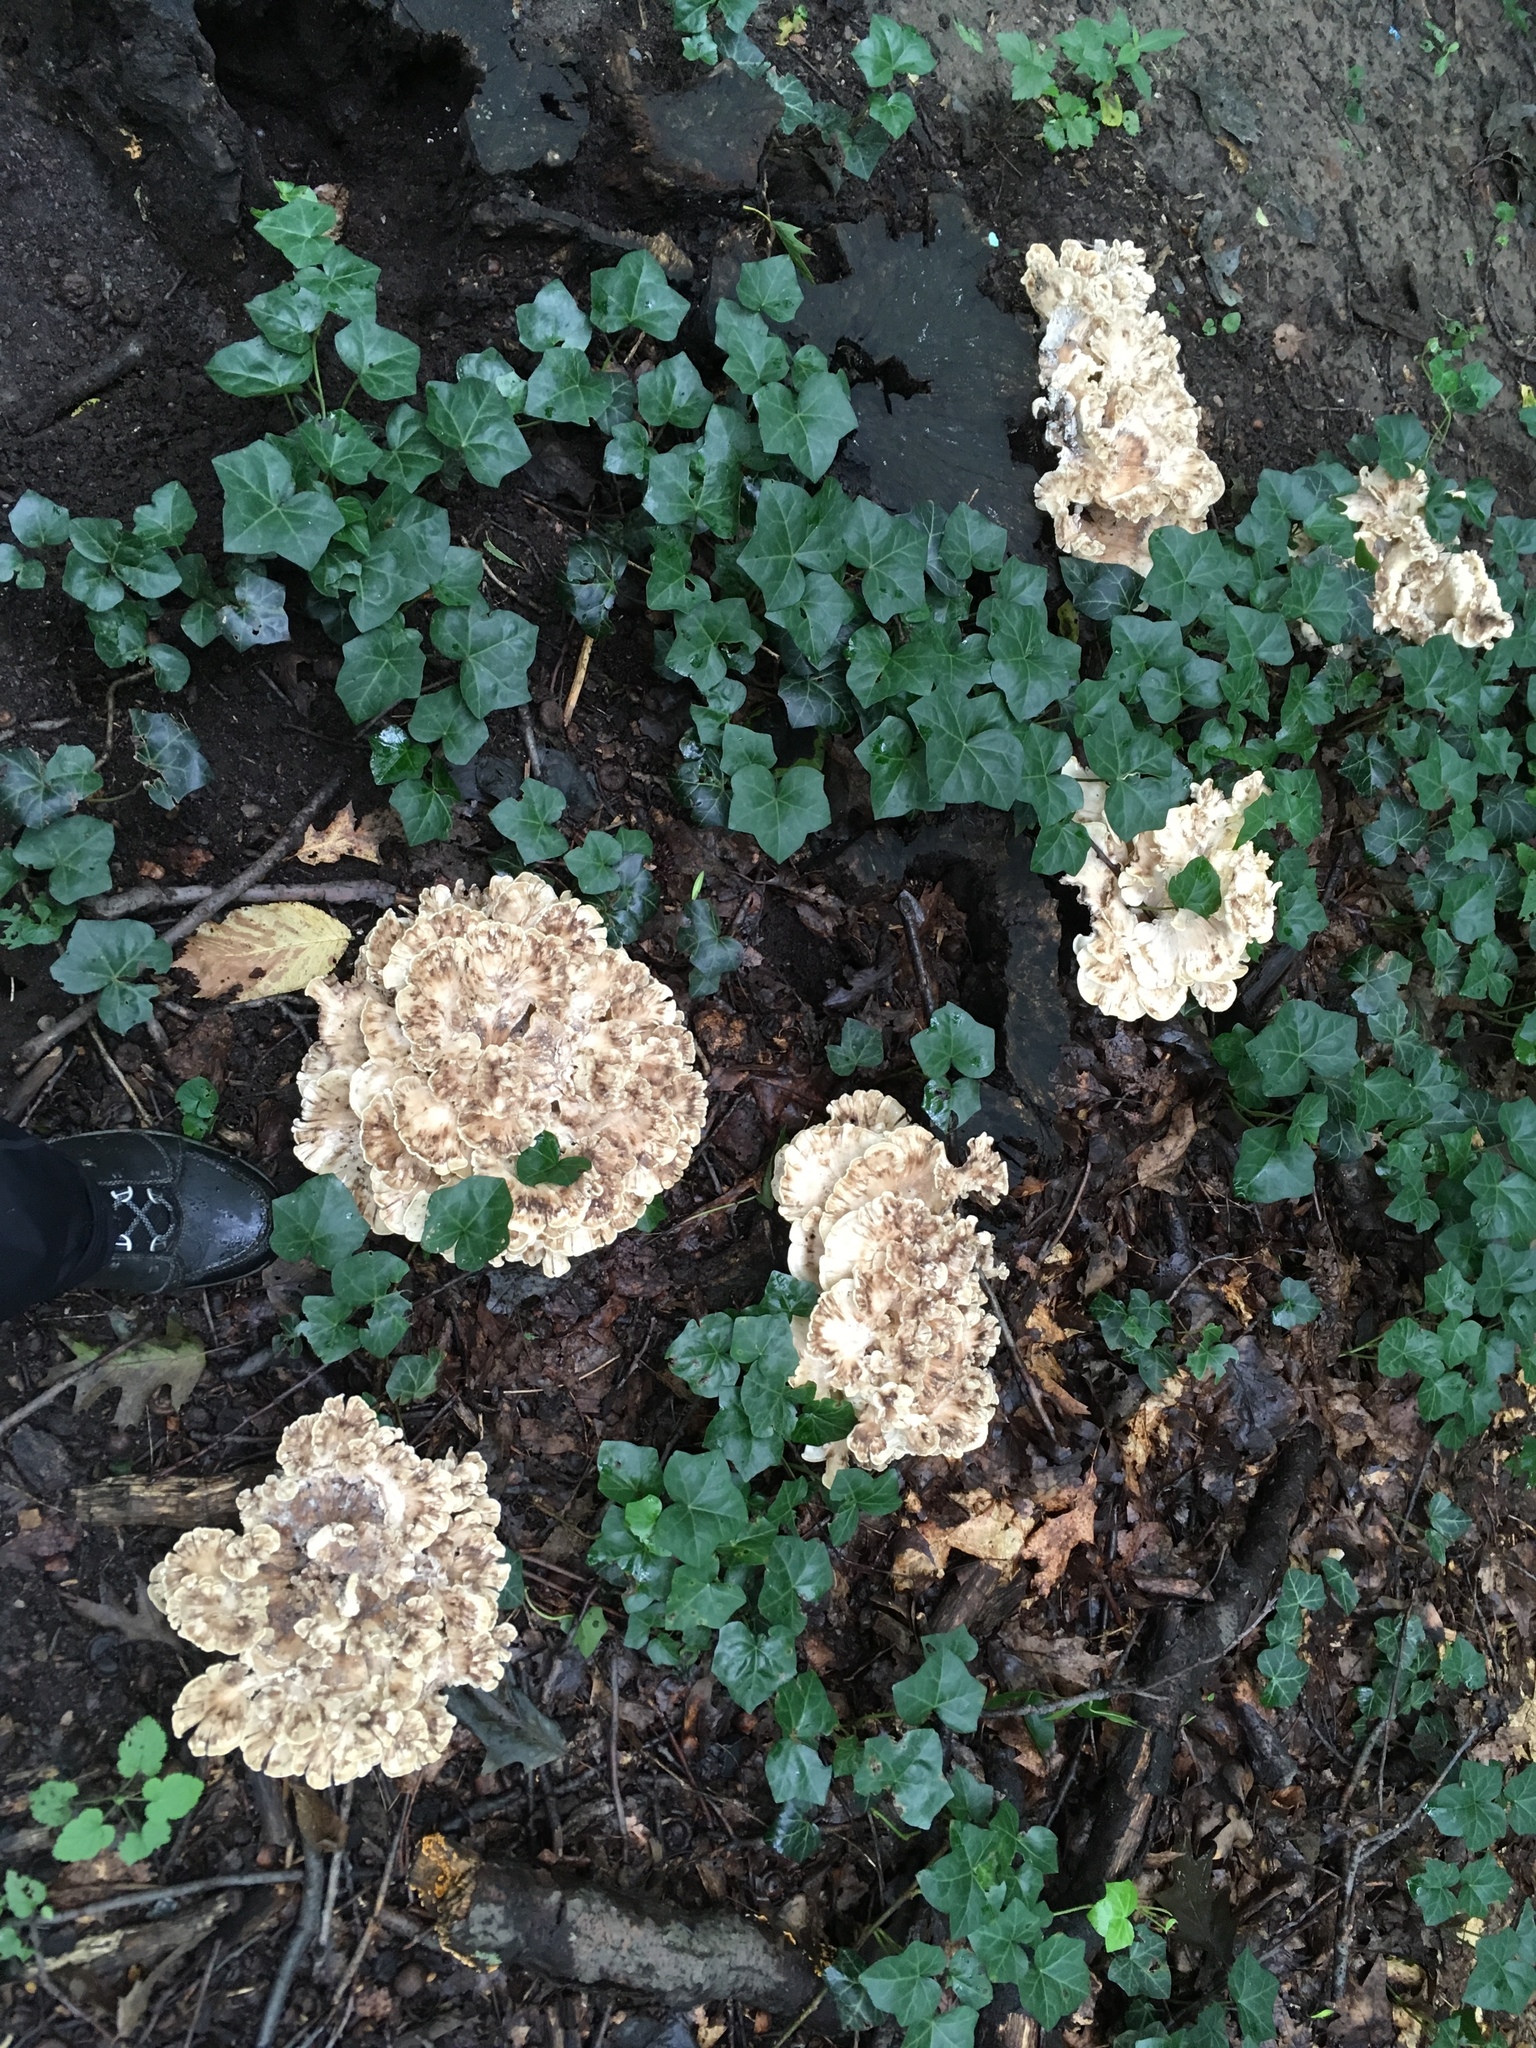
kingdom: Fungi
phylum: Basidiomycota
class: Agaricomycetes
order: Polyporales
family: Meripilaceae
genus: Meripilus
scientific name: Meripilus sumstinei
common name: Black-staining polypore
